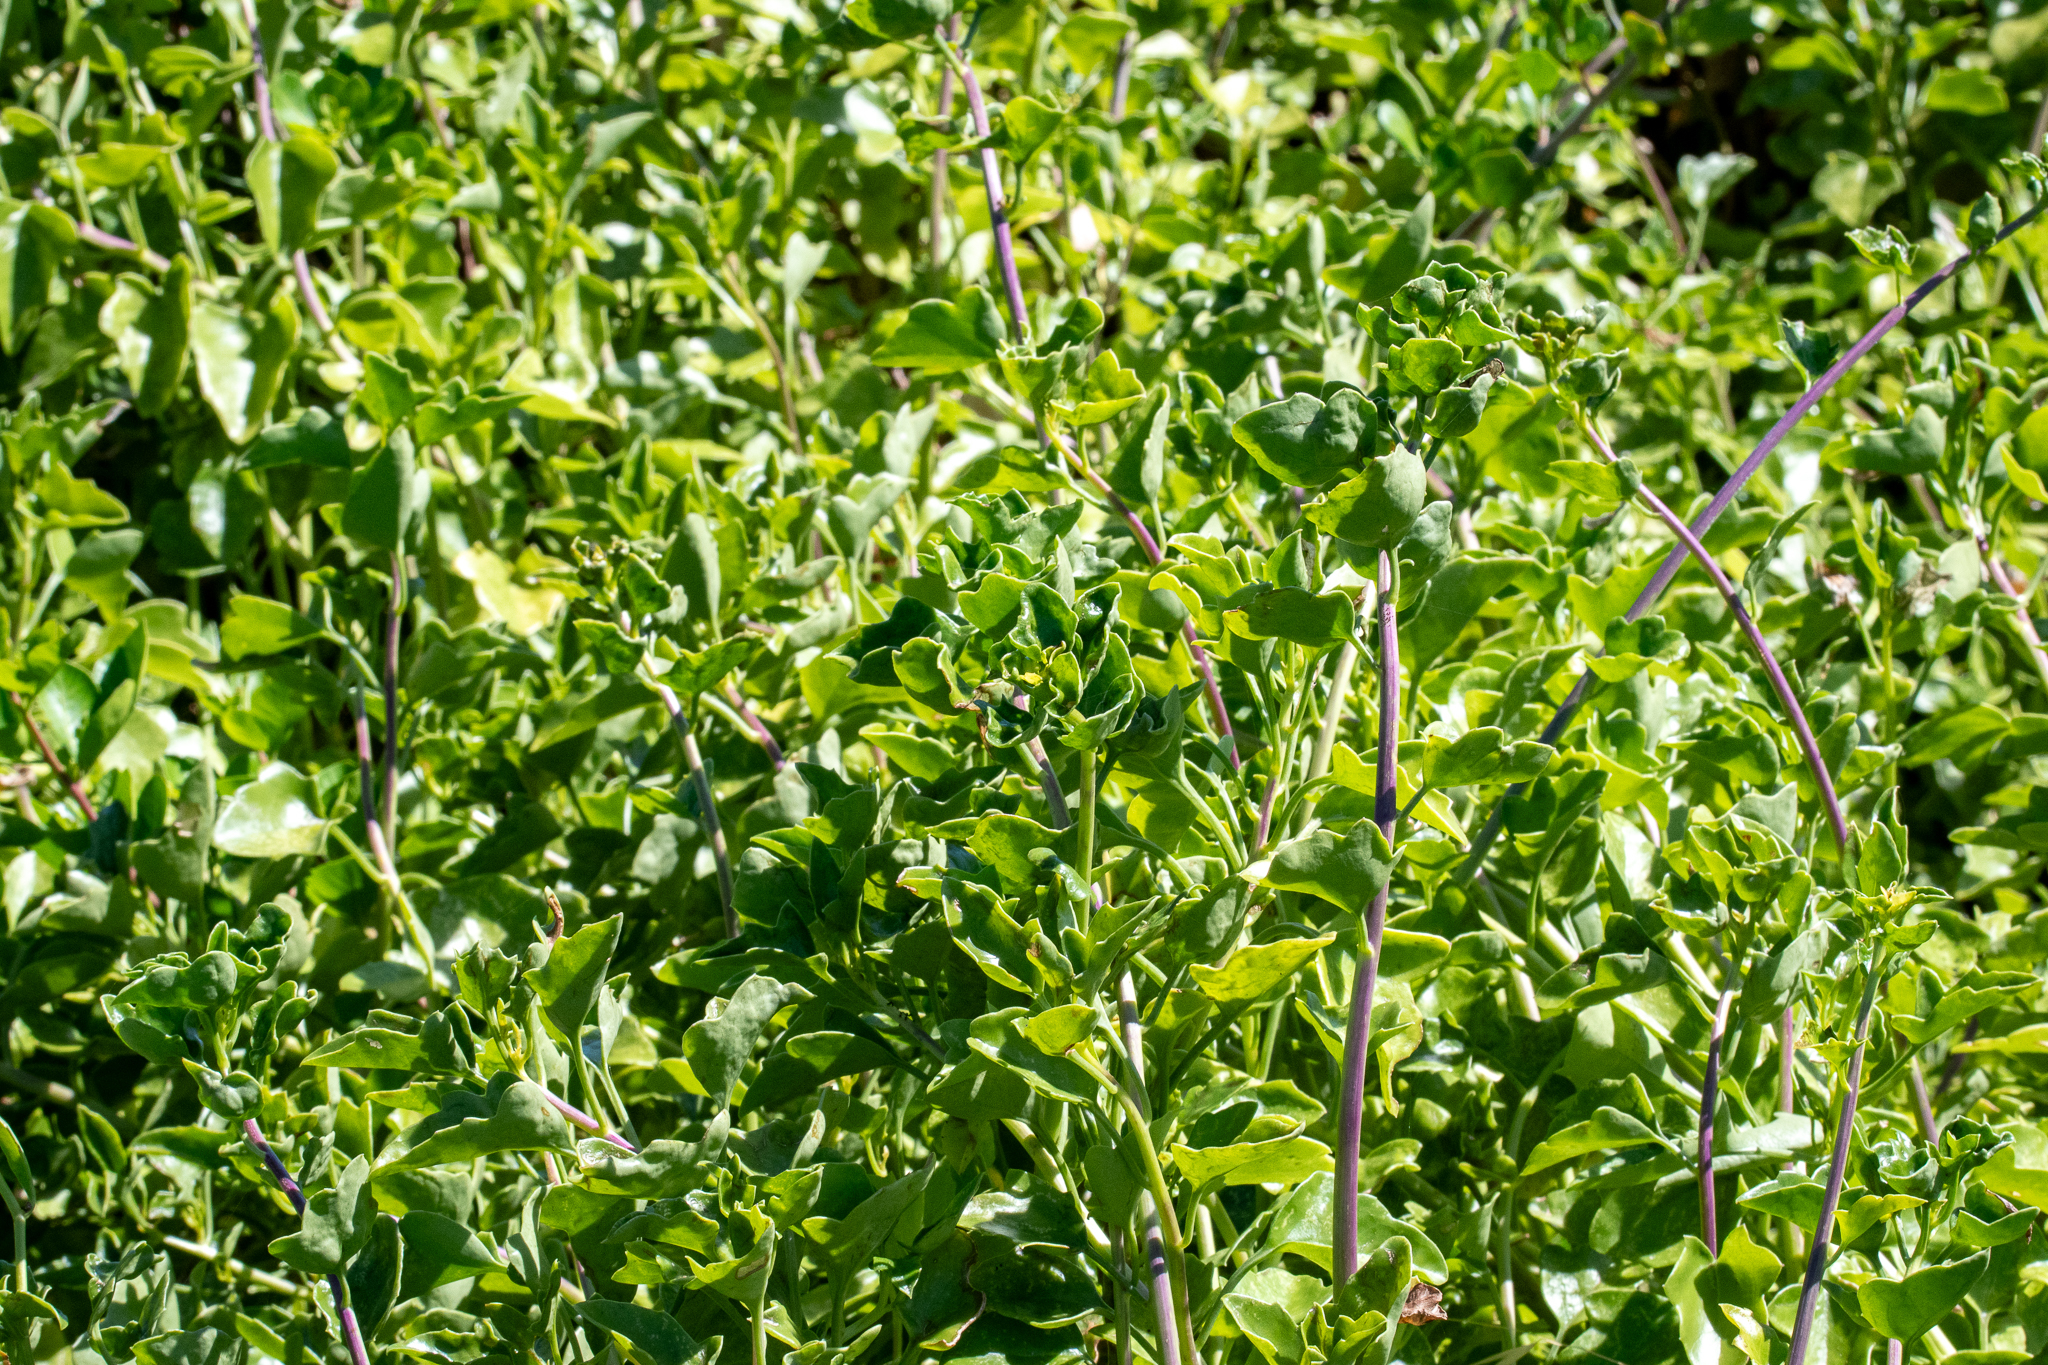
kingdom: Plantae
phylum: Tracheophyta
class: Magnoliopsida
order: Asterales
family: Asteraceae
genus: Senecio
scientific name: Senecio angulatus
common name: Climbing groundsel
